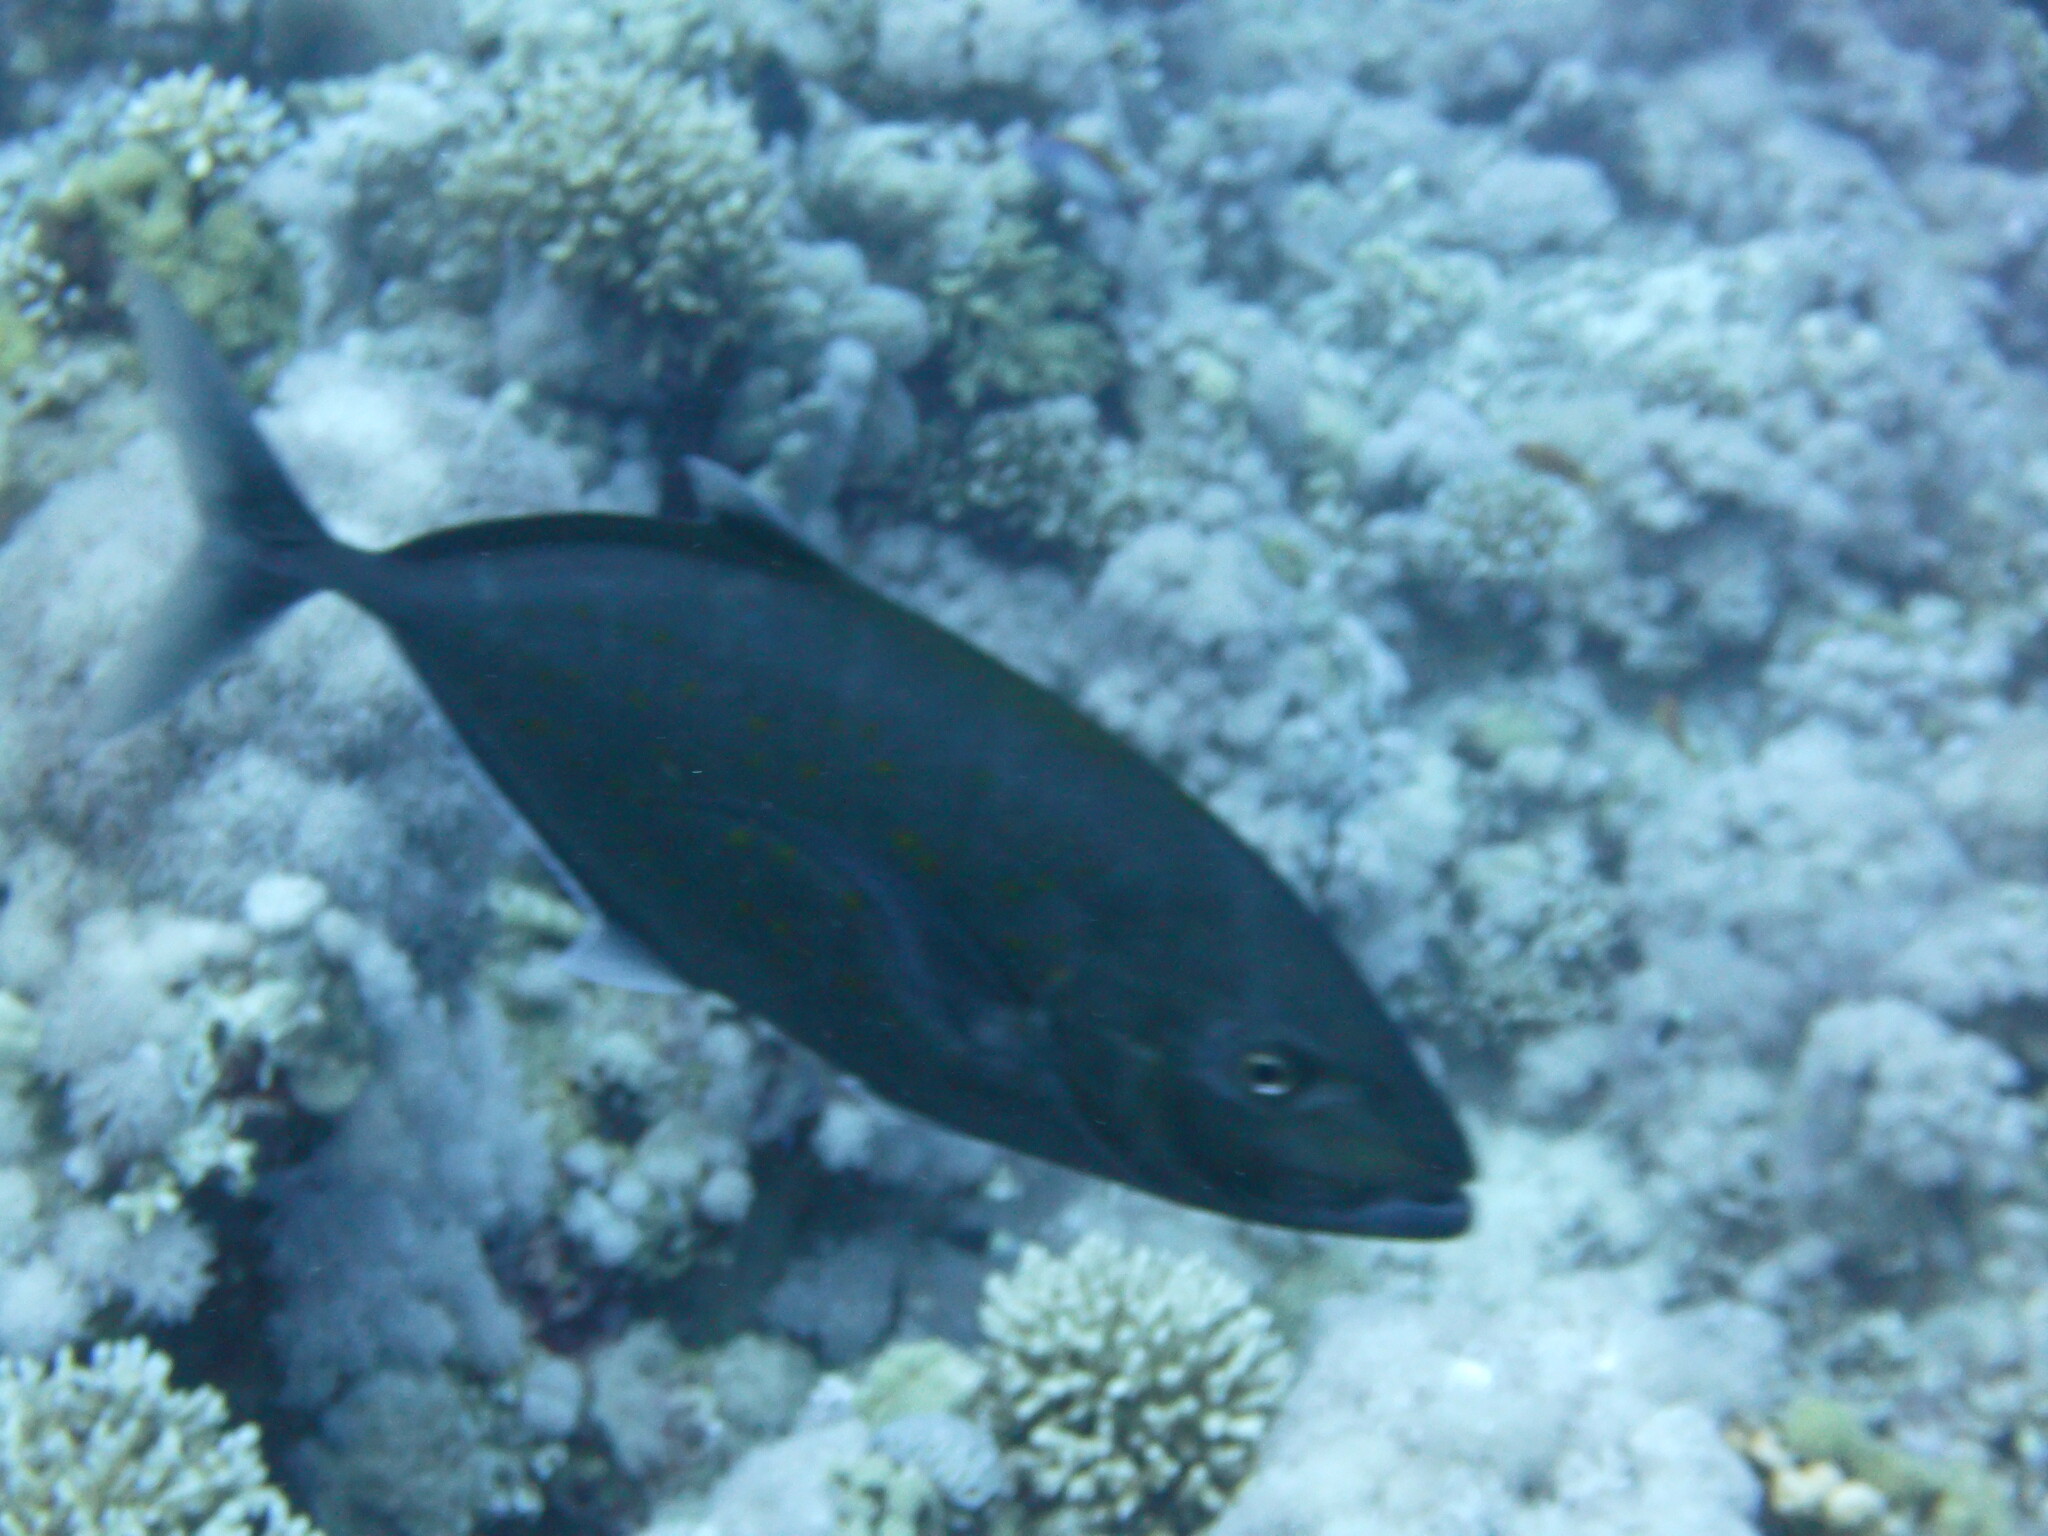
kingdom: Animalia
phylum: Chordata
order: Perciformes
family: Carangidae
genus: Flavocaranx
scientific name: Flavocaranx bajad
